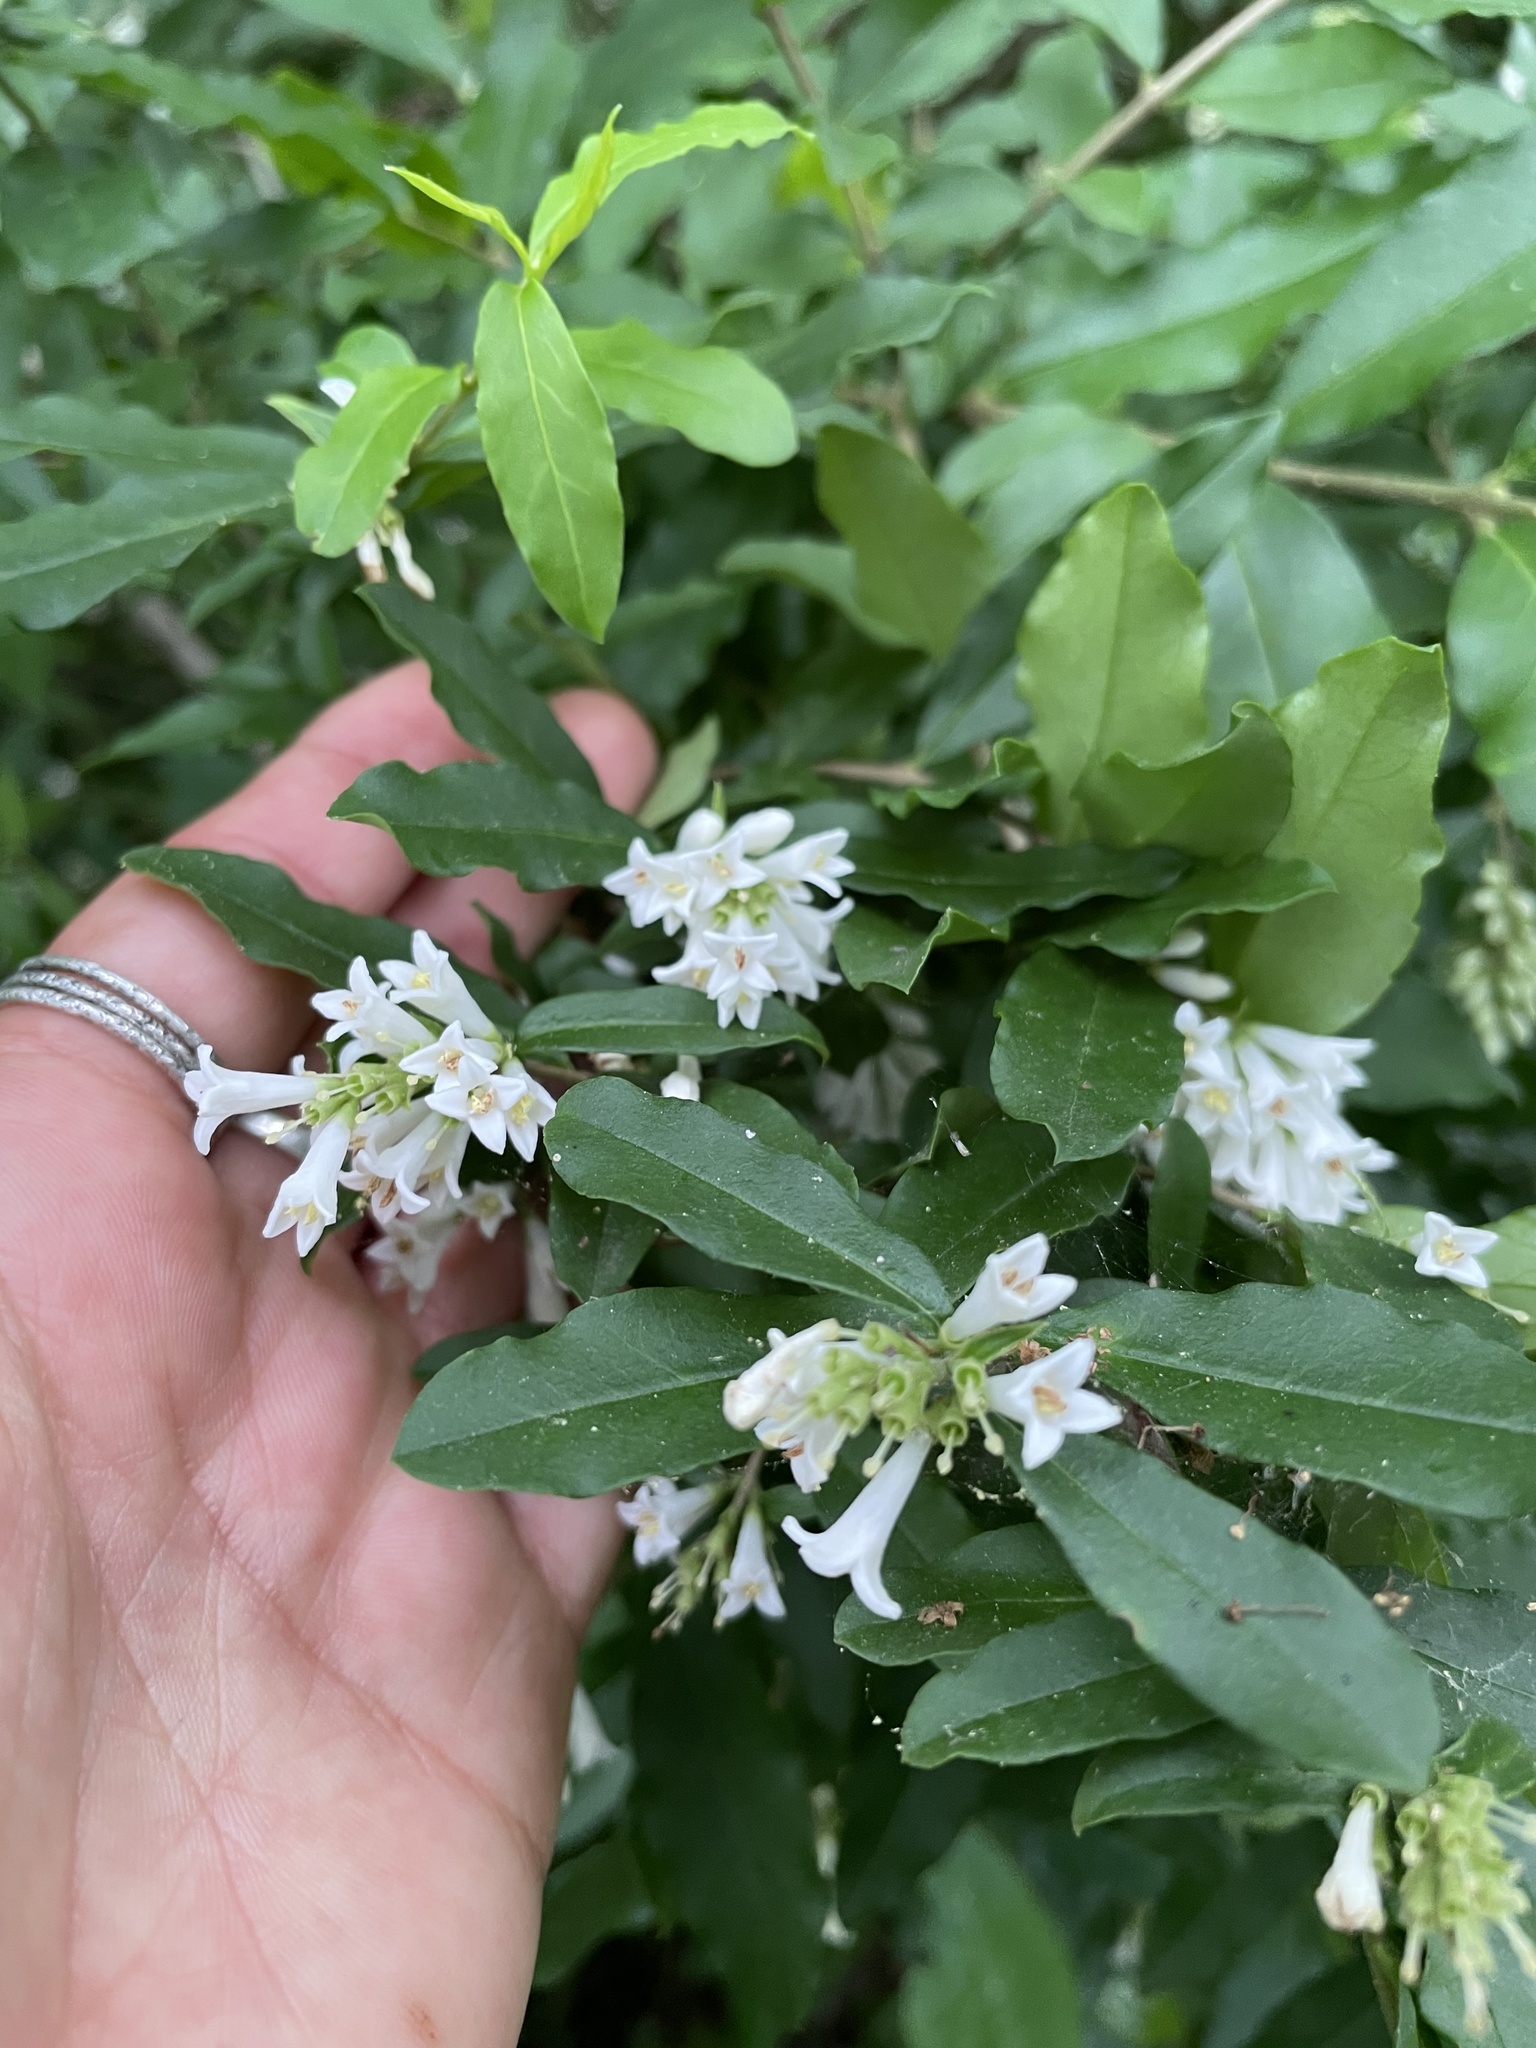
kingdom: Plantae
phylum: Tracheophyta
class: Magnoliopsida
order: Lamiales
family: Oleaceae
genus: Ligustrum
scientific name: Ligustrum obtusifolium
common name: Border privet
